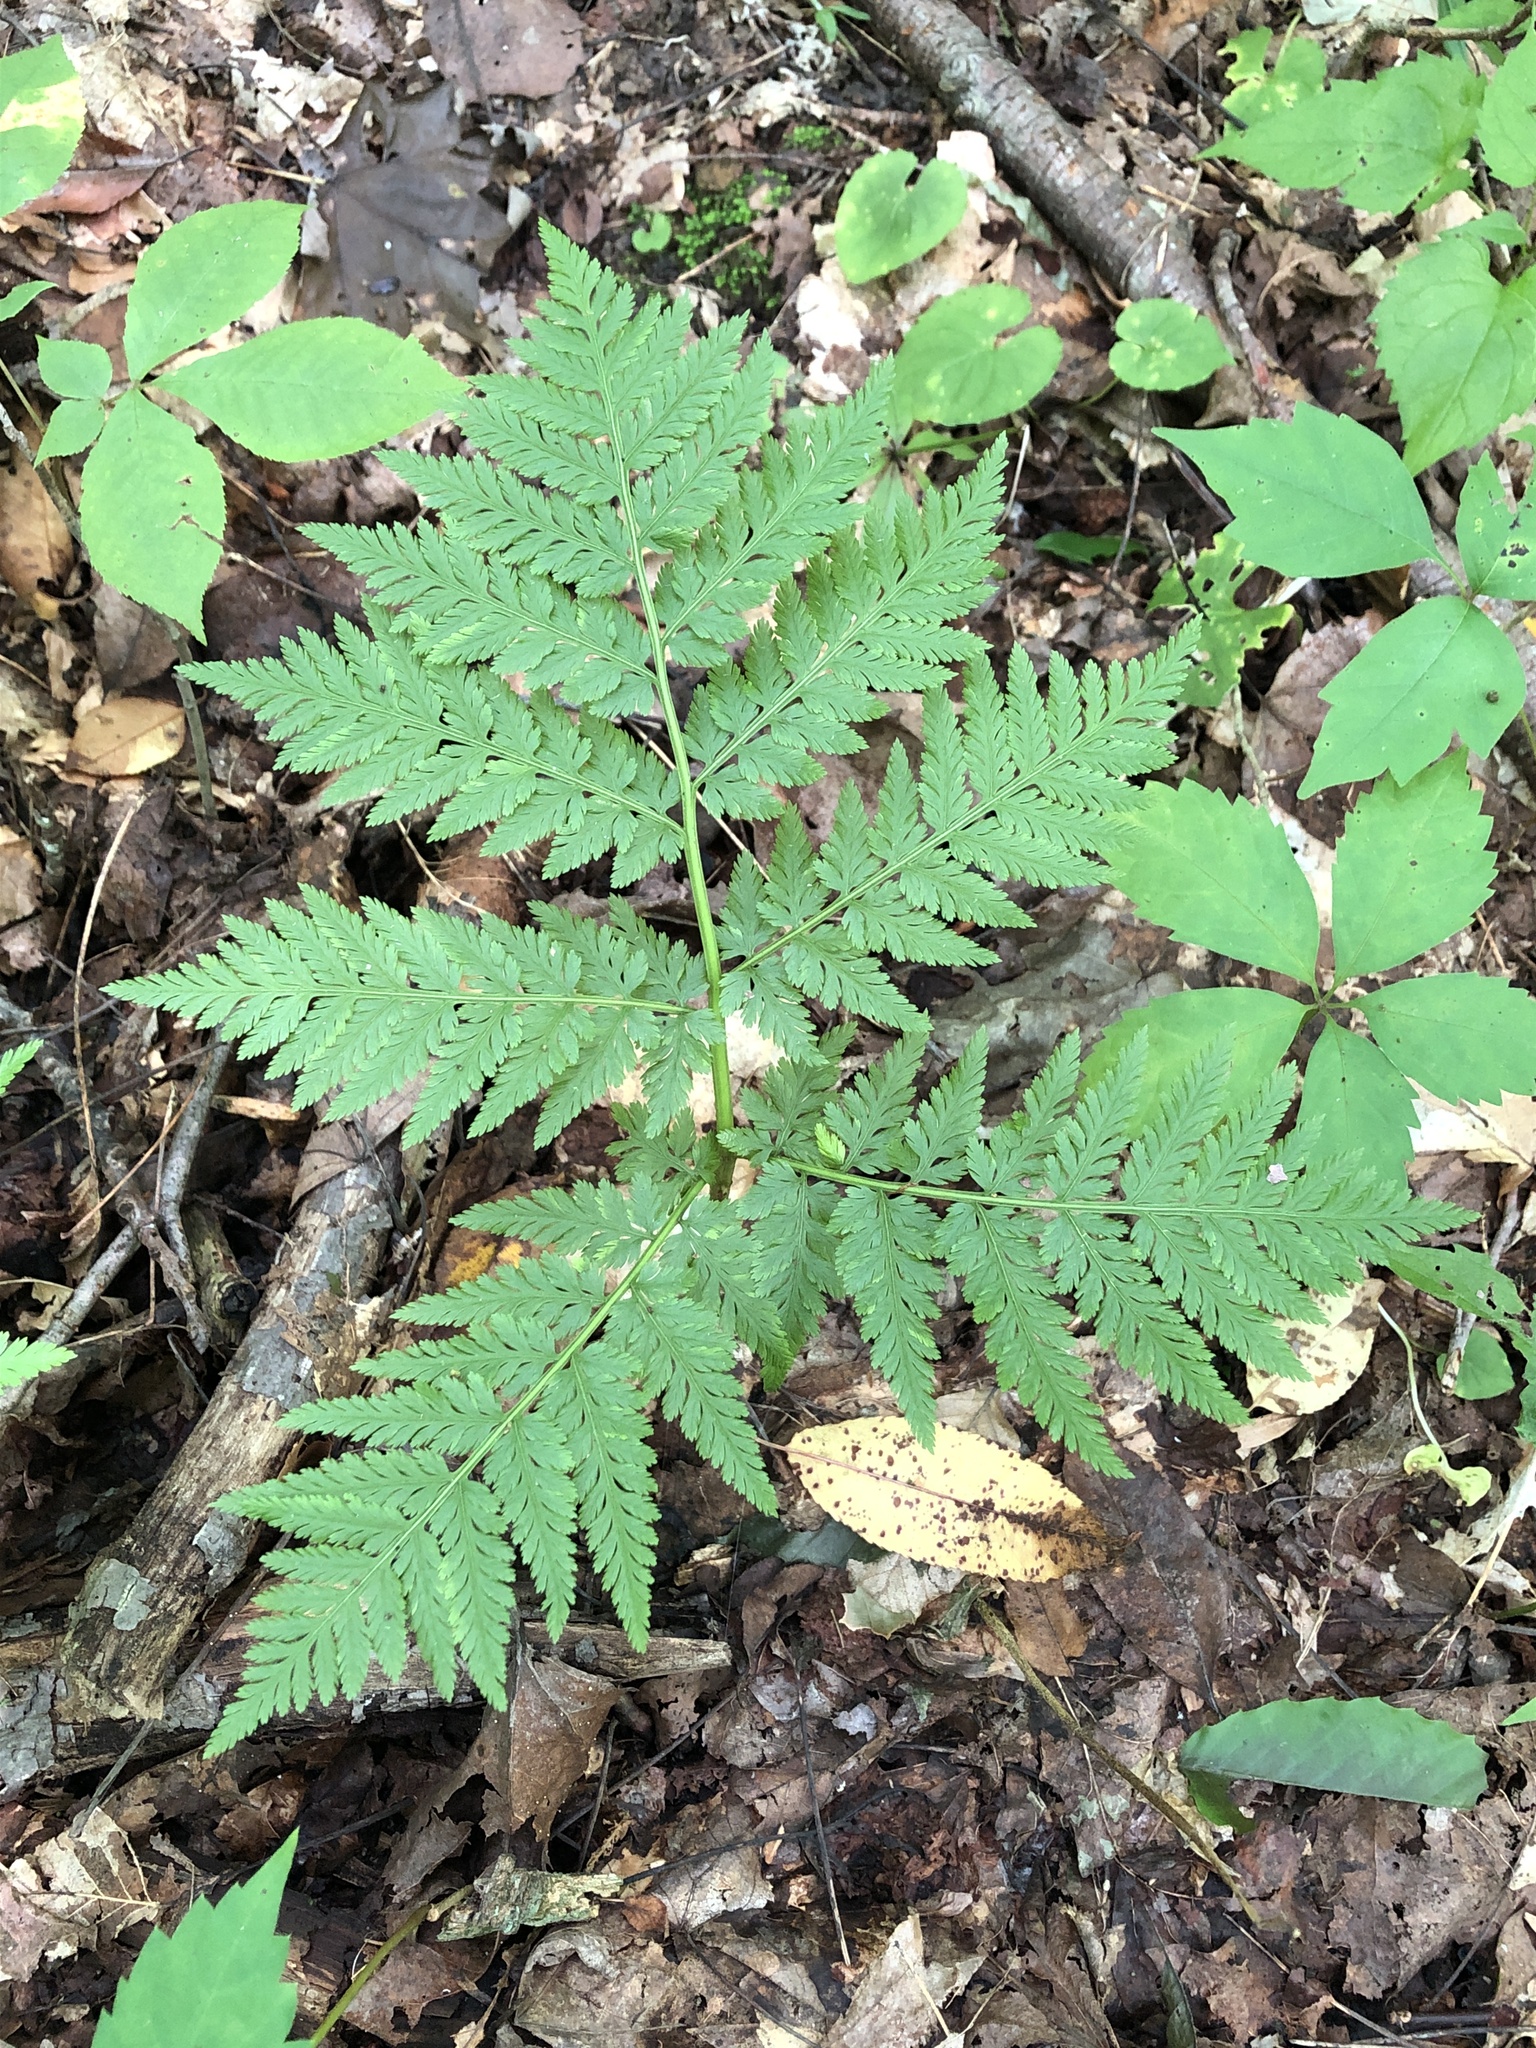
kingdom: Plantae
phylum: Tracheophyta
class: Polypodiopsida
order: Ophioglossales
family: Ophioglossaceae
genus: Botrypus
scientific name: Botrypus virginianus
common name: Common grapefern
